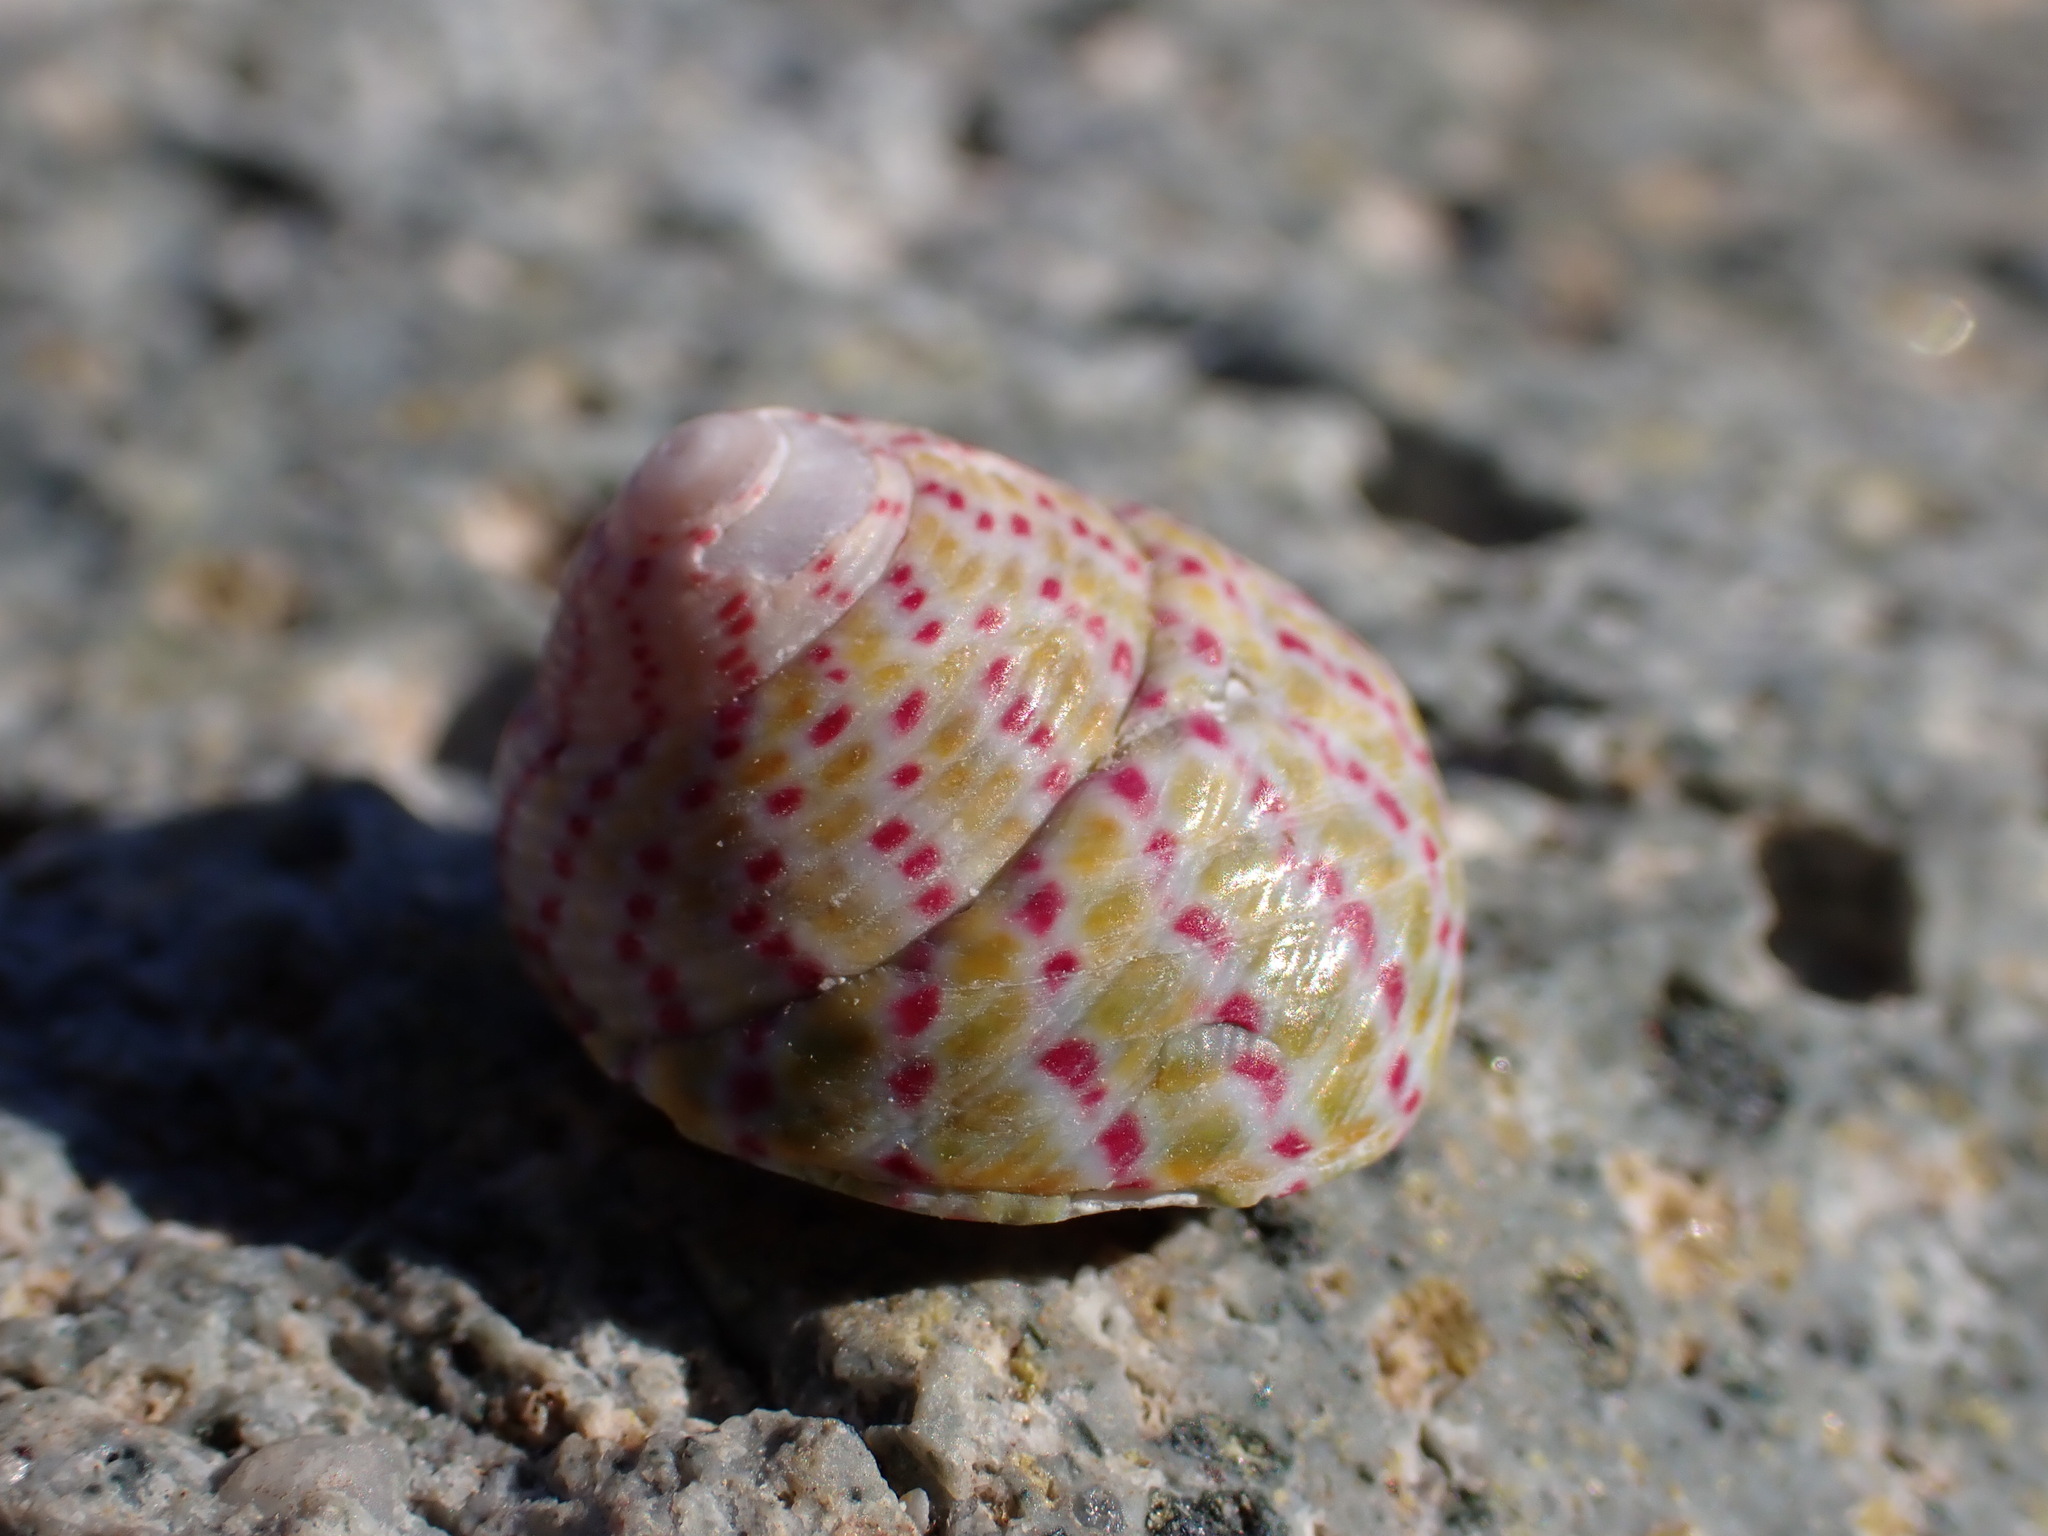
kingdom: Animalia
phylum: Mollusca
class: Gastropoda
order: Trochida
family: Trochidae
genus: Steromphala
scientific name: Steromphala divaricata
